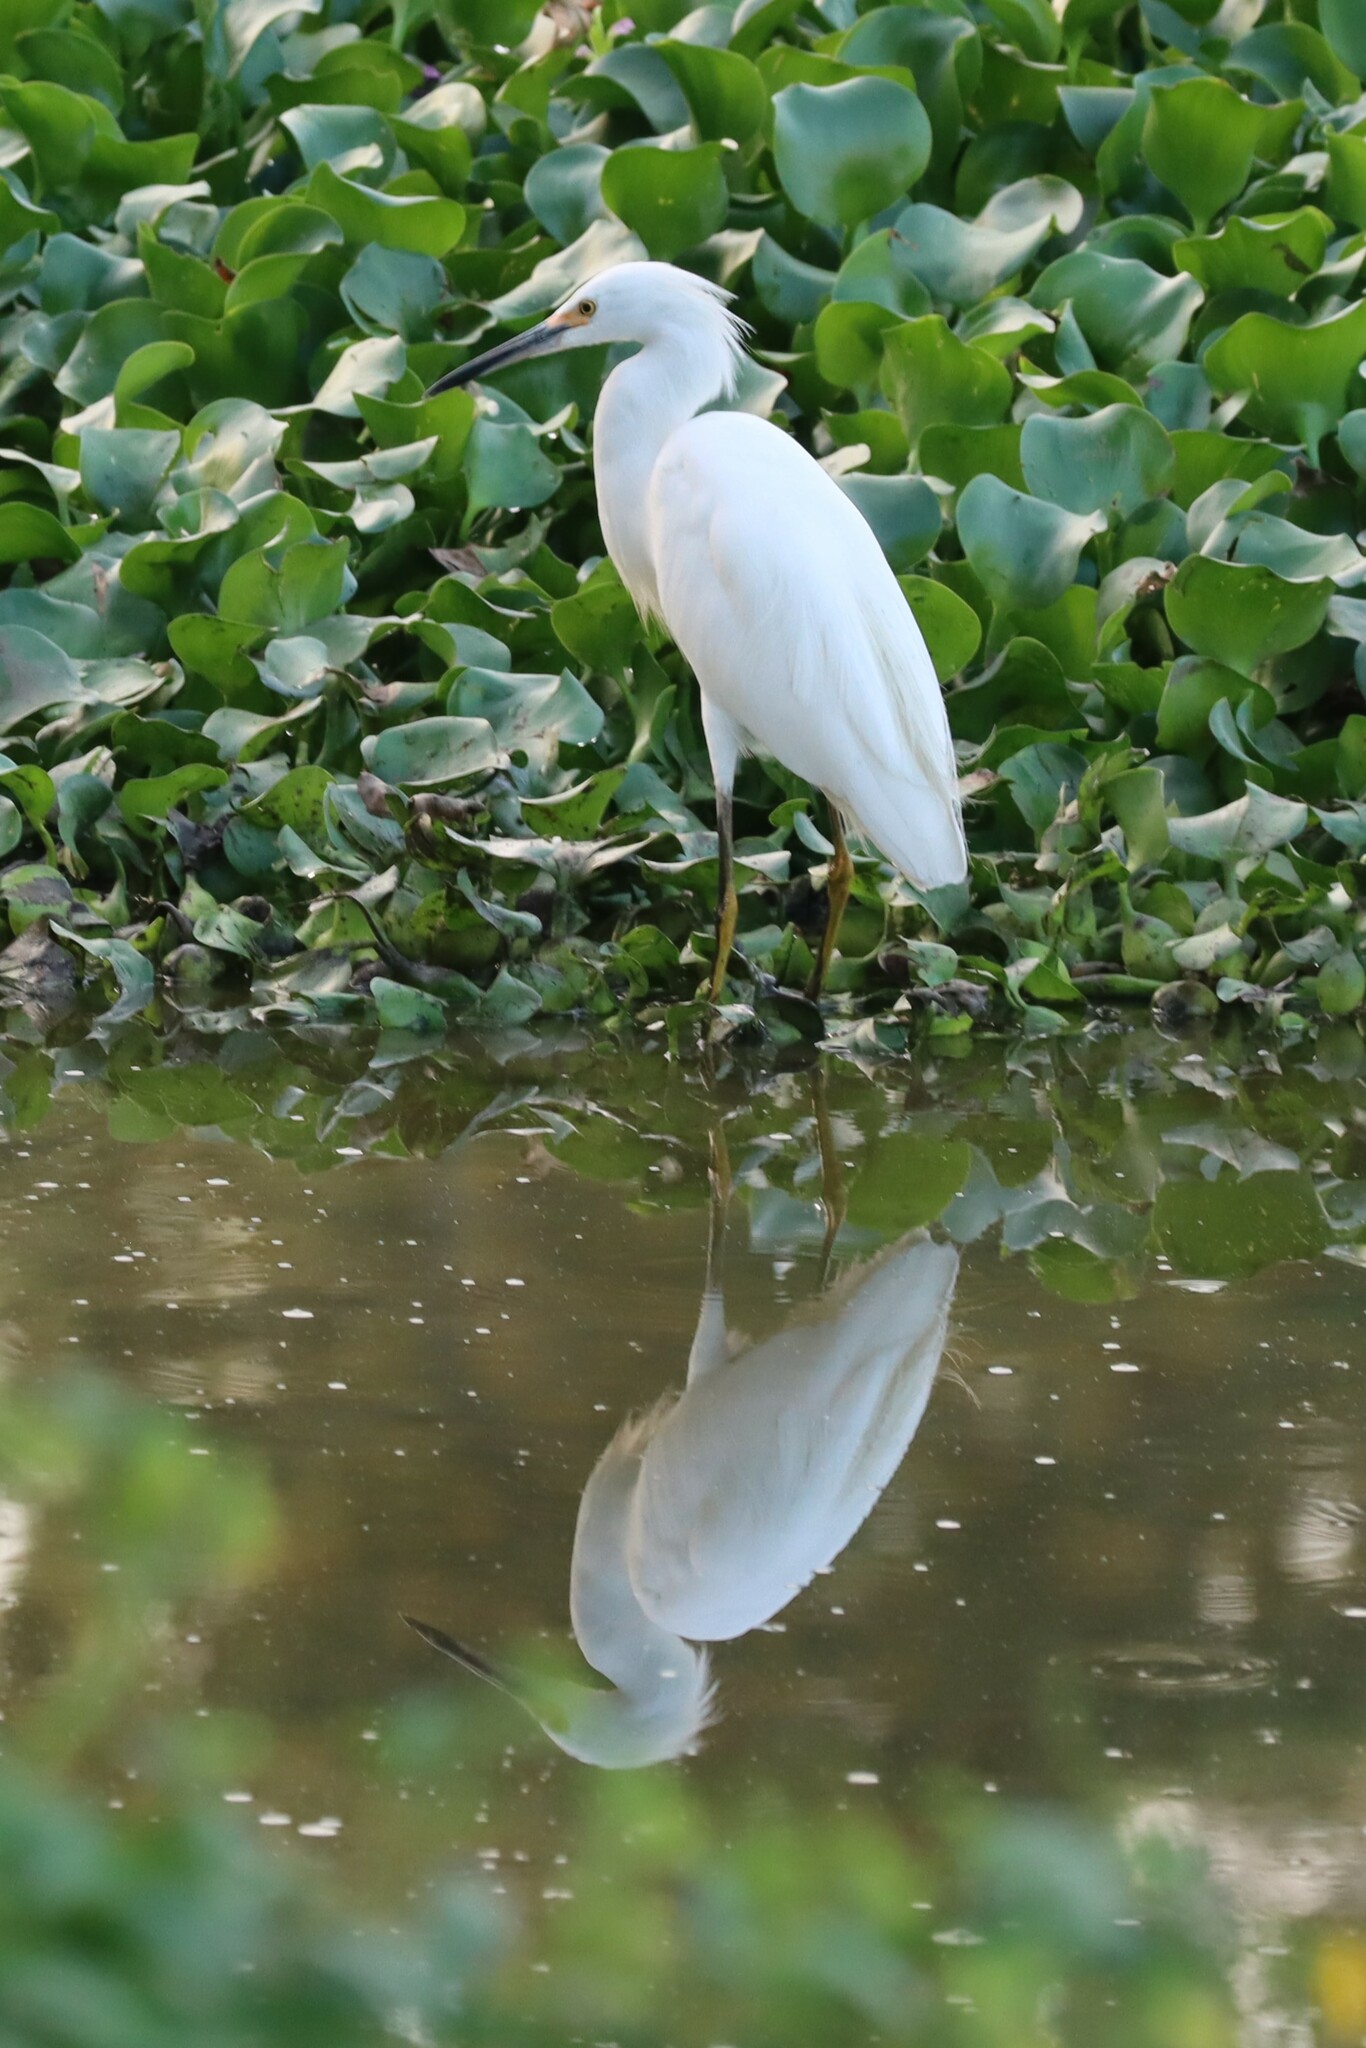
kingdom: Animalia
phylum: Chordata
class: Aves
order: Pelecaniformes
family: Ardeidae
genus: Egretta
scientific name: Egretta thula
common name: Snowy egret
